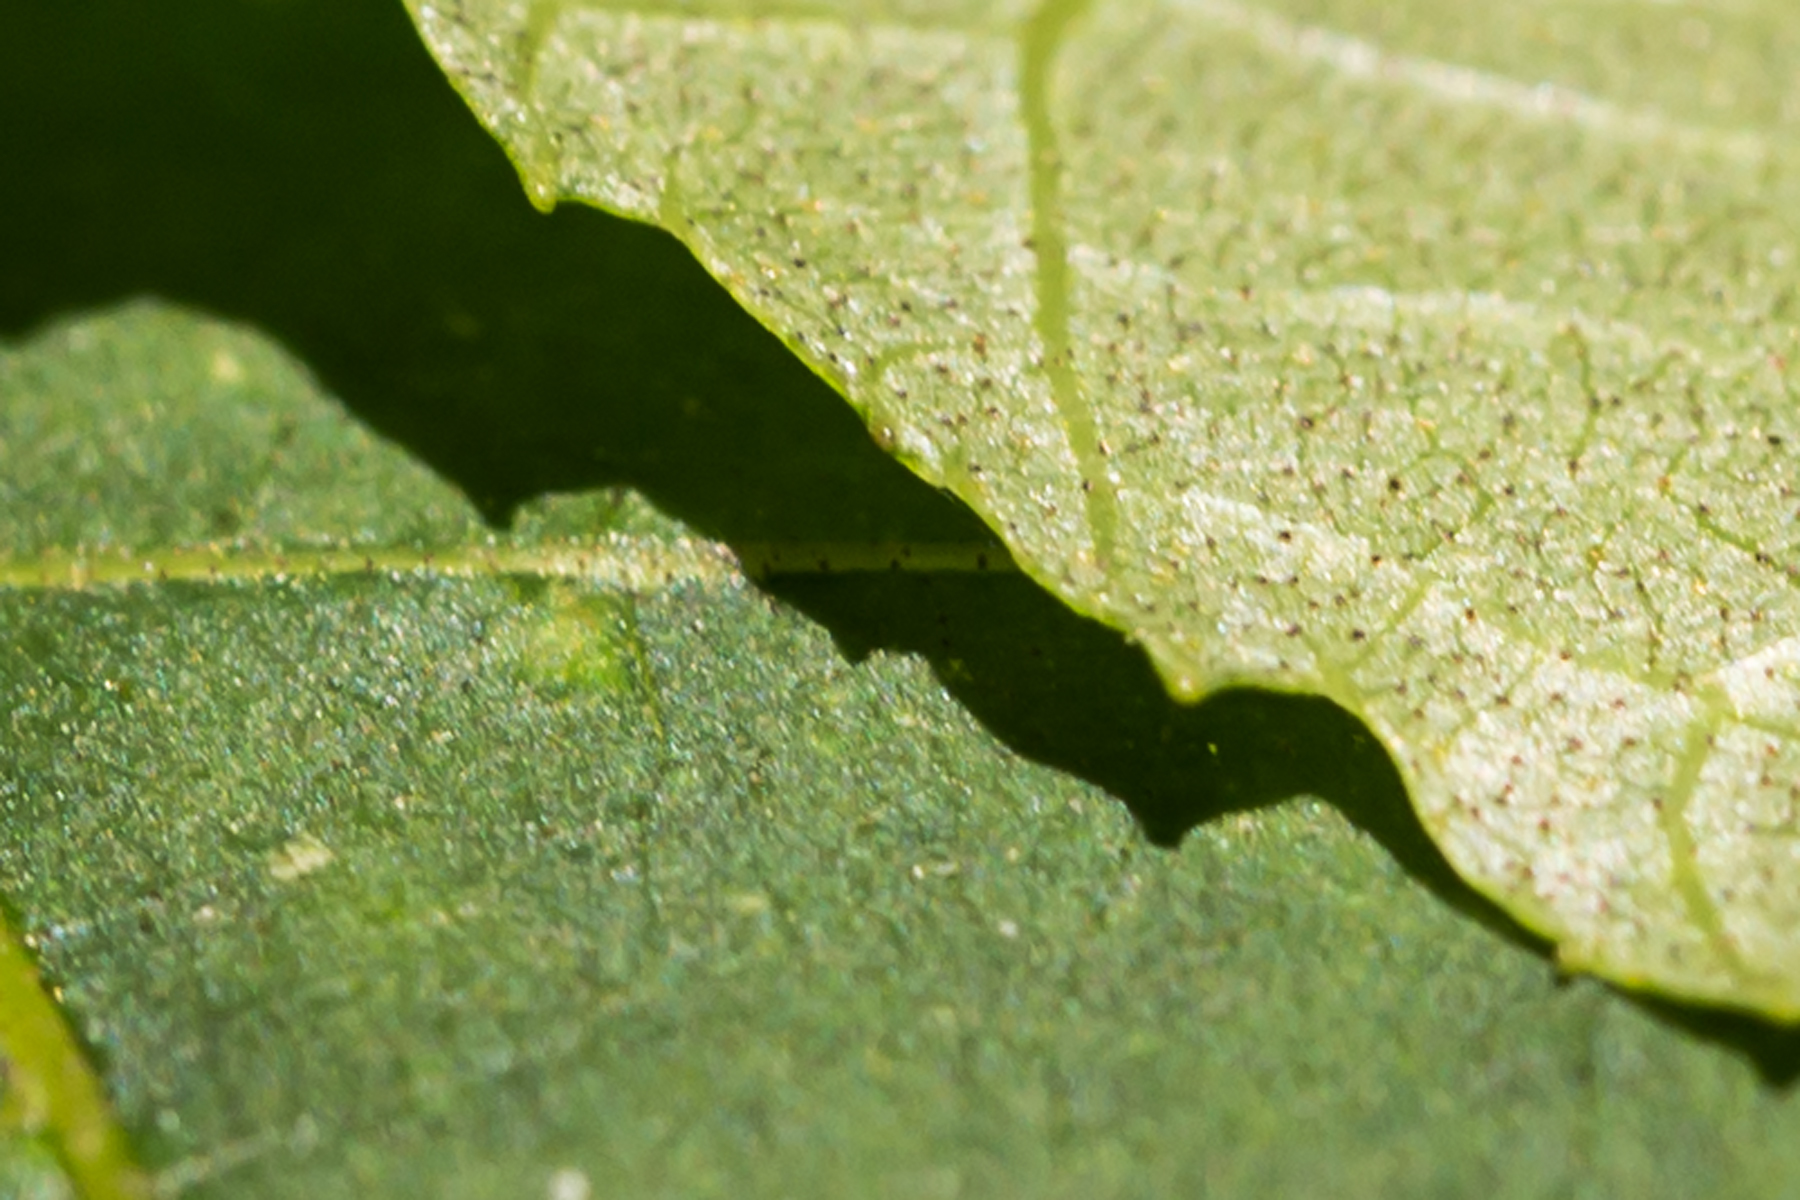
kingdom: Plantae
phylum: Tracheophyta
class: Magnoliopsida
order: Fagales
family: Juglandaceae
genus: Carya
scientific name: Carya alba
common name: Mockernut hickory
